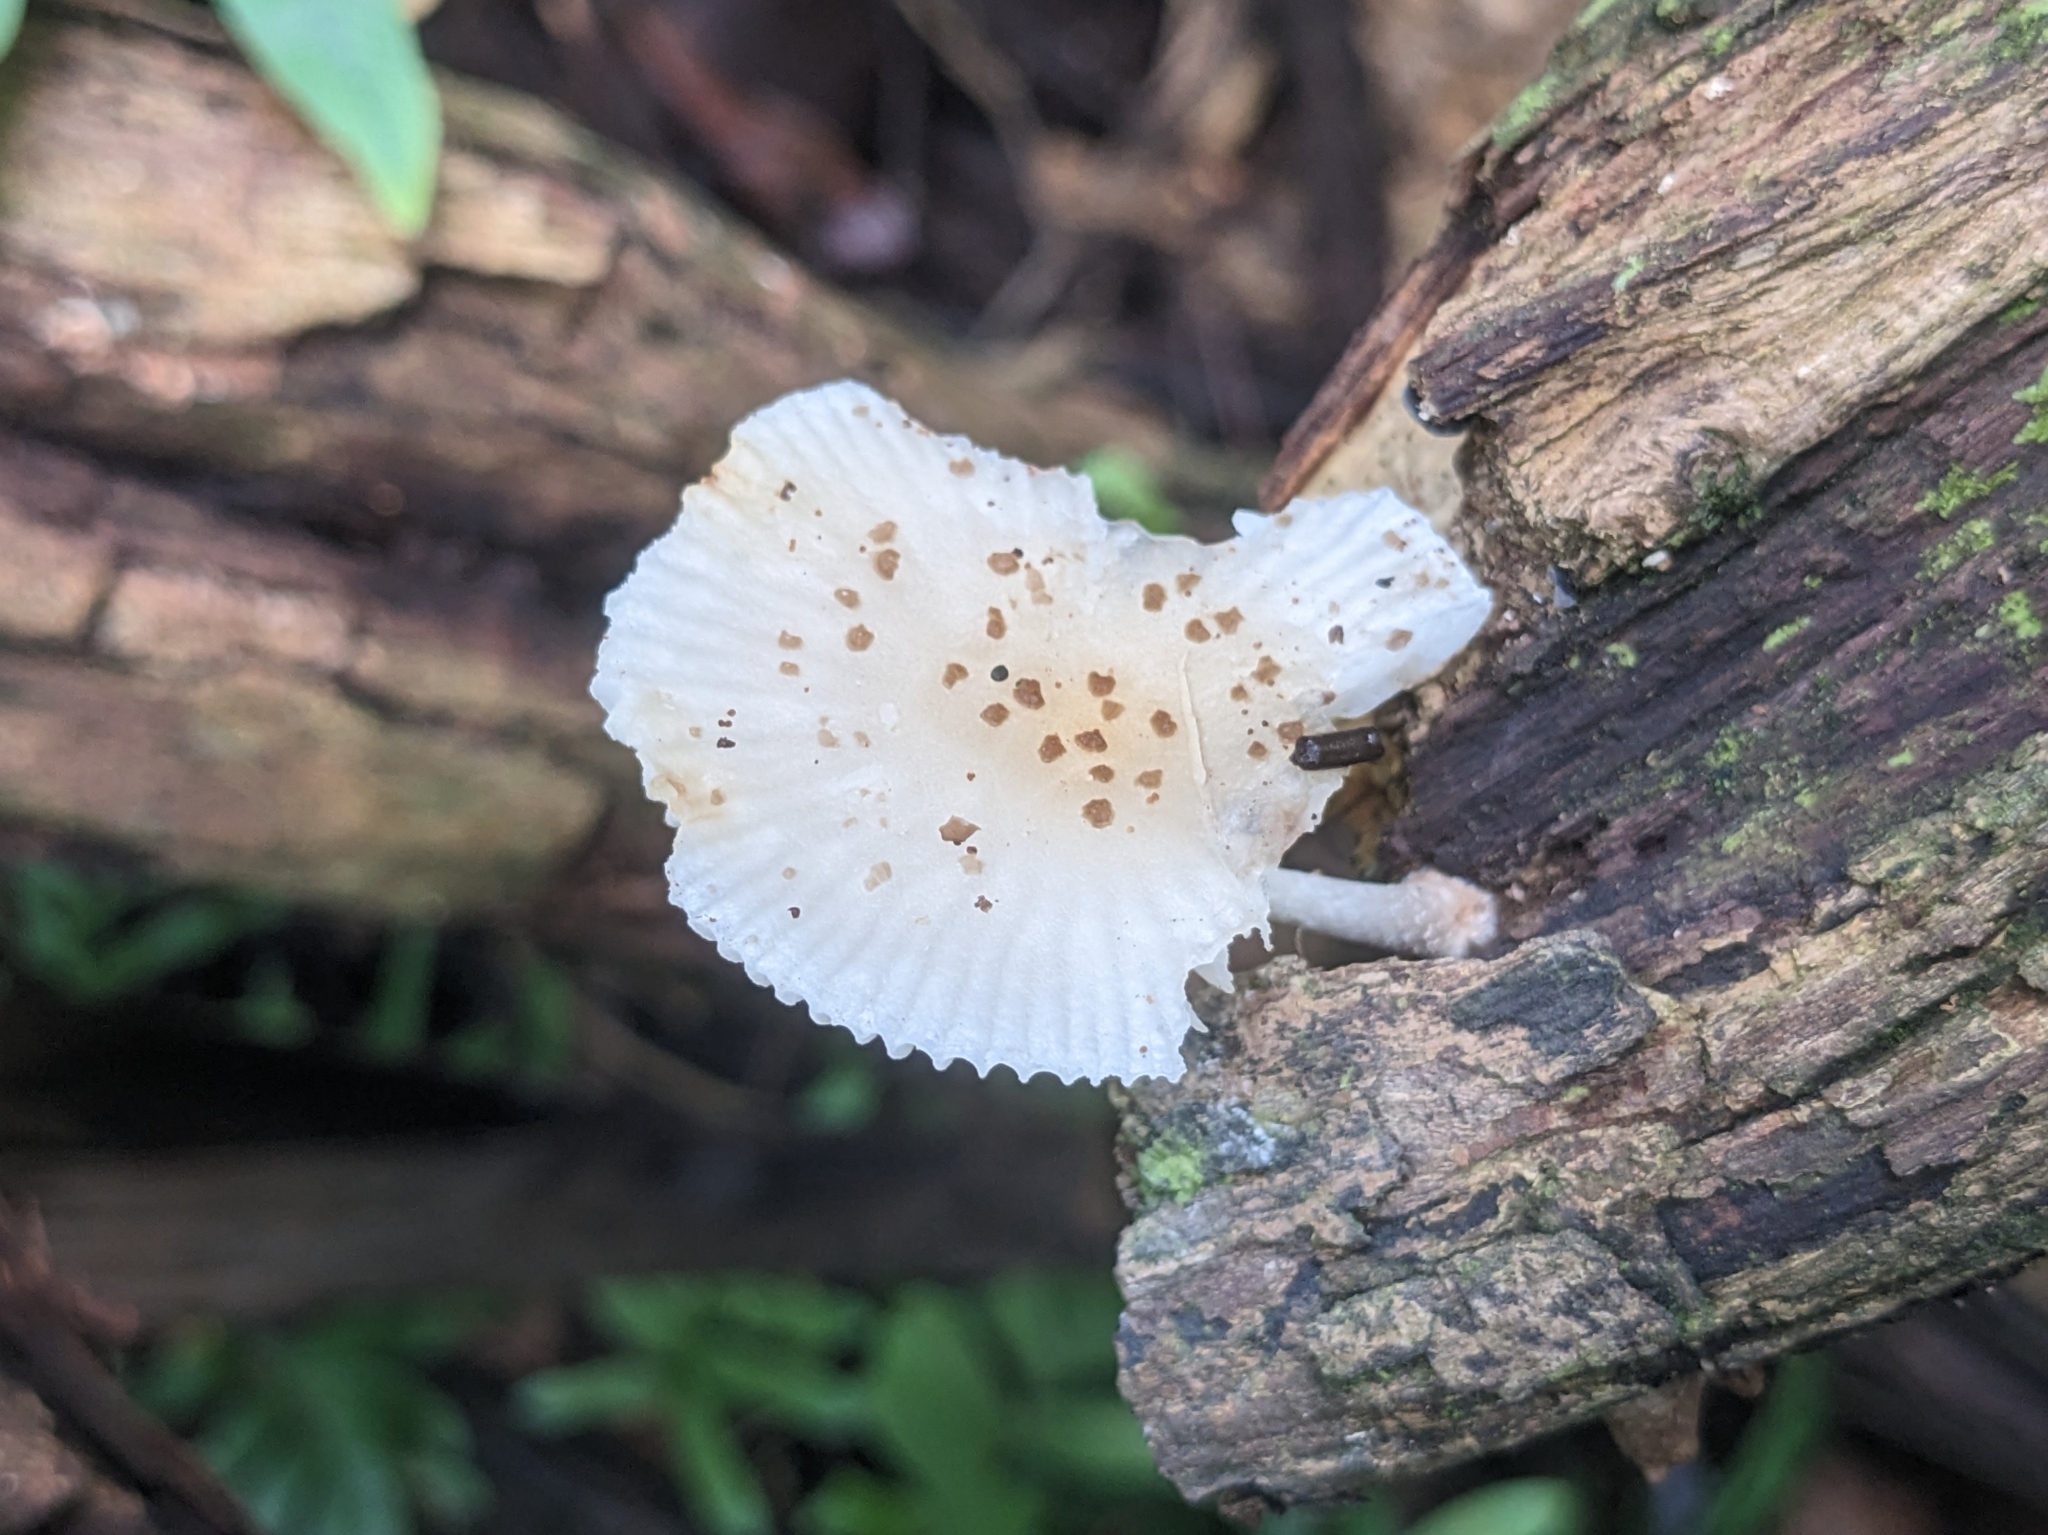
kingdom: Fungi
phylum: Basidiomycota
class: Agaricomycetes
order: Agaricales
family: Physalacriaceae
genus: Oudemansiella
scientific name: Oudemansiella canarii
